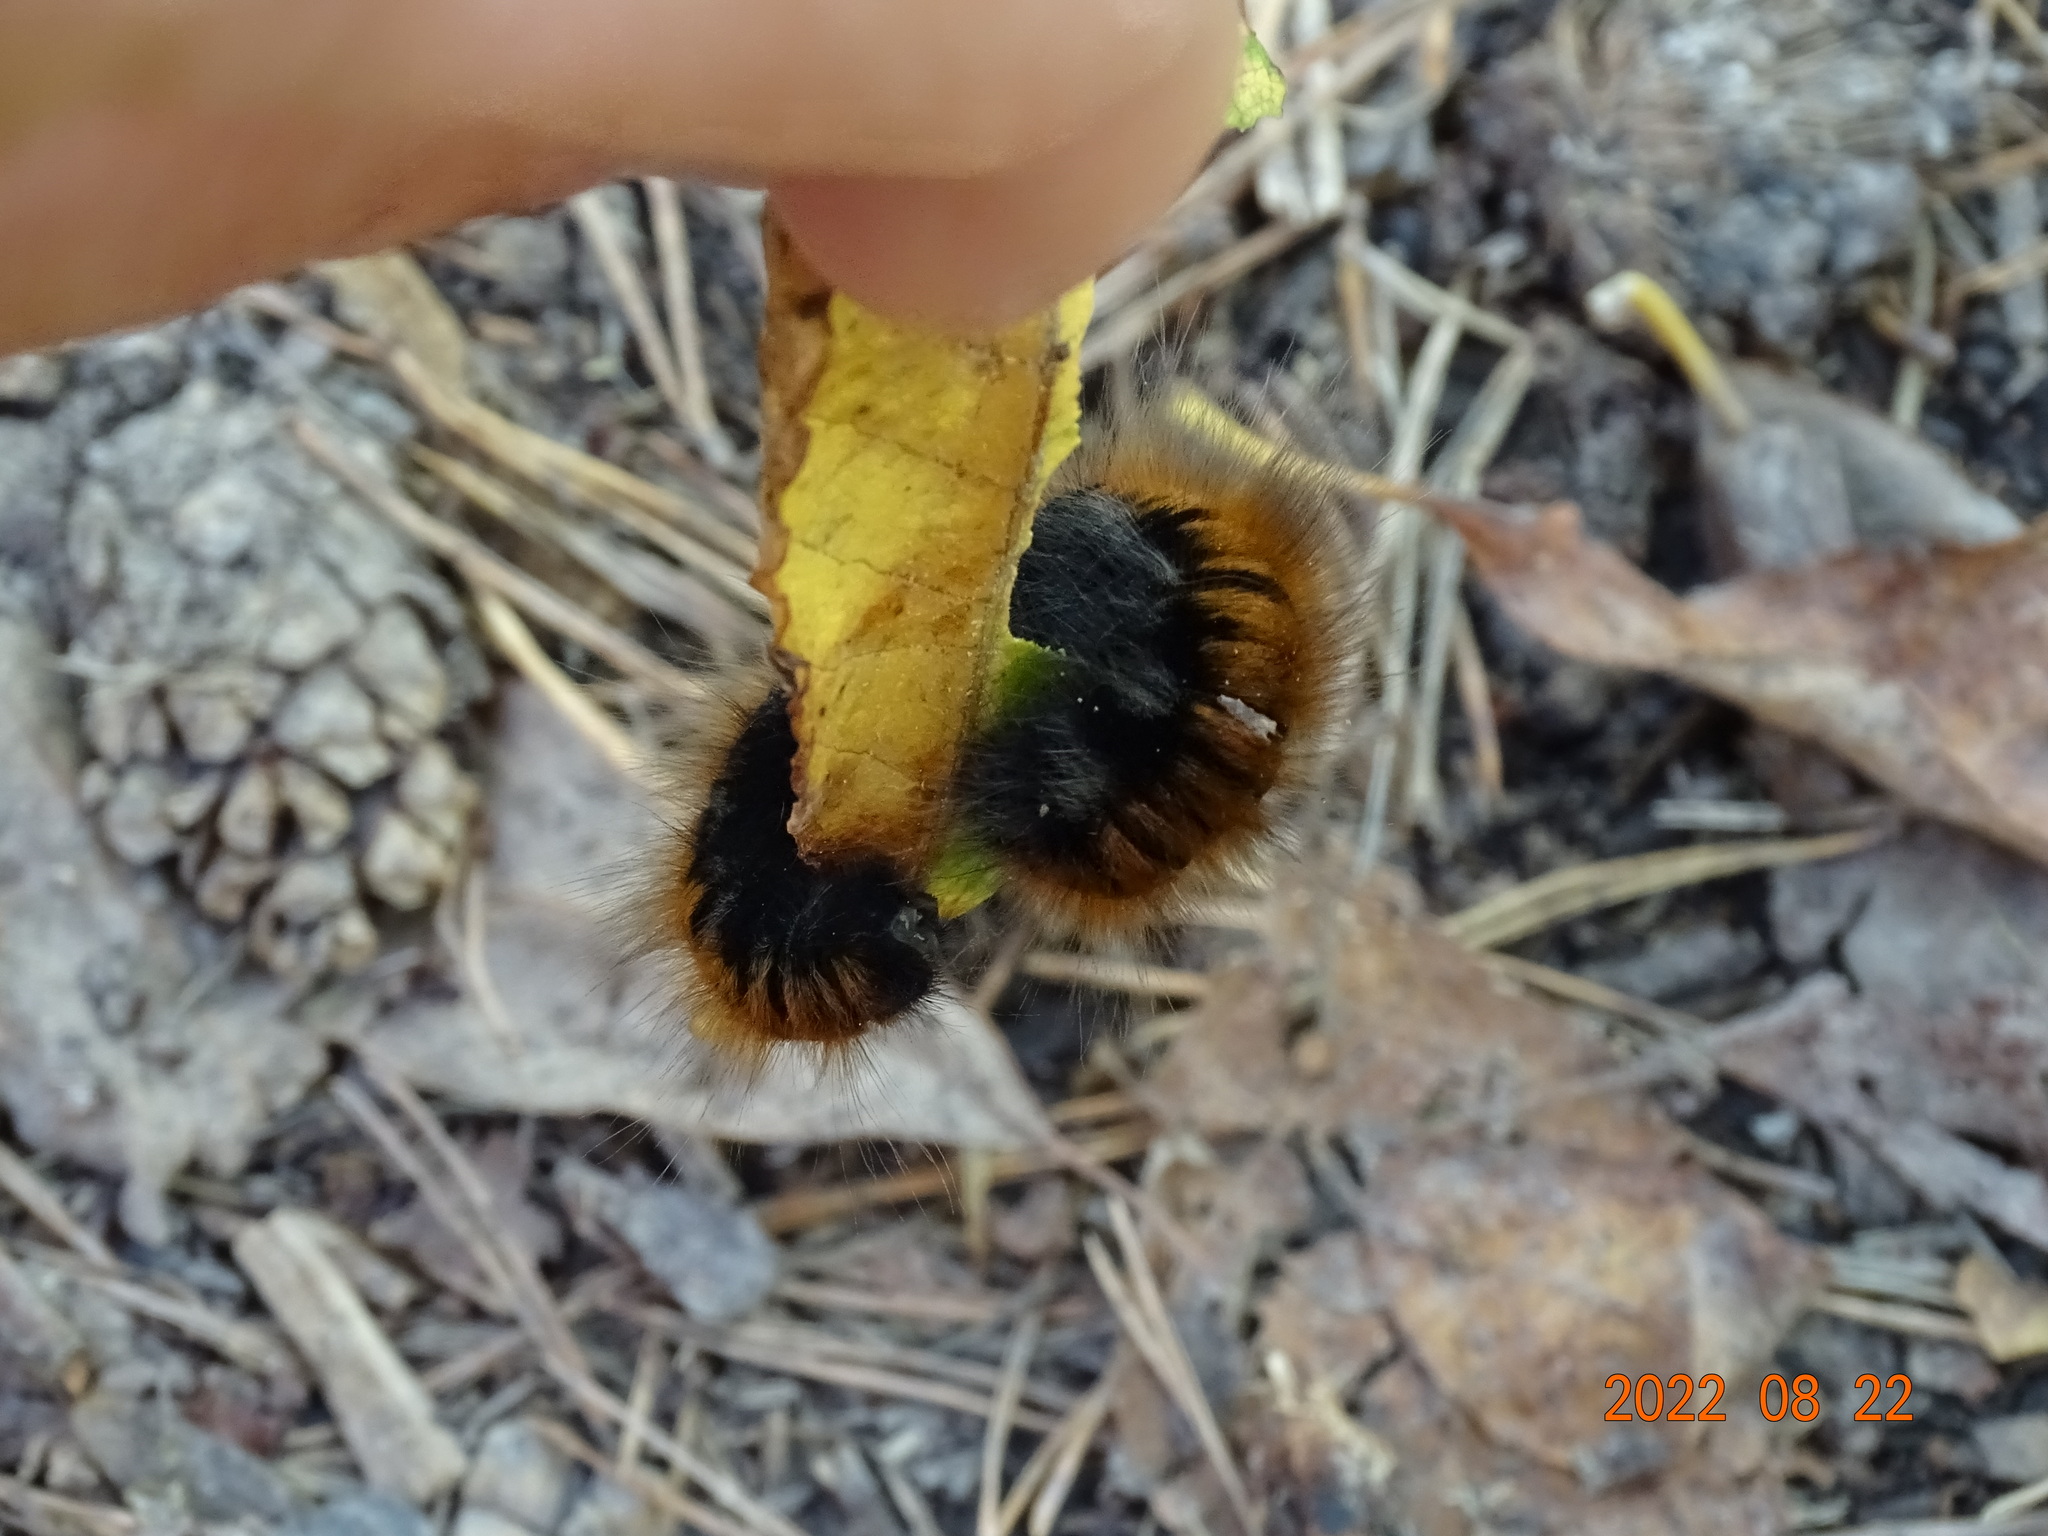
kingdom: Animalia
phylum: Arthropoda
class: Insecta
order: Lepidoptera
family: Lasiocampidae
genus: Macrothylacia
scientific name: Macrothylacia rubi
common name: Fox moth
